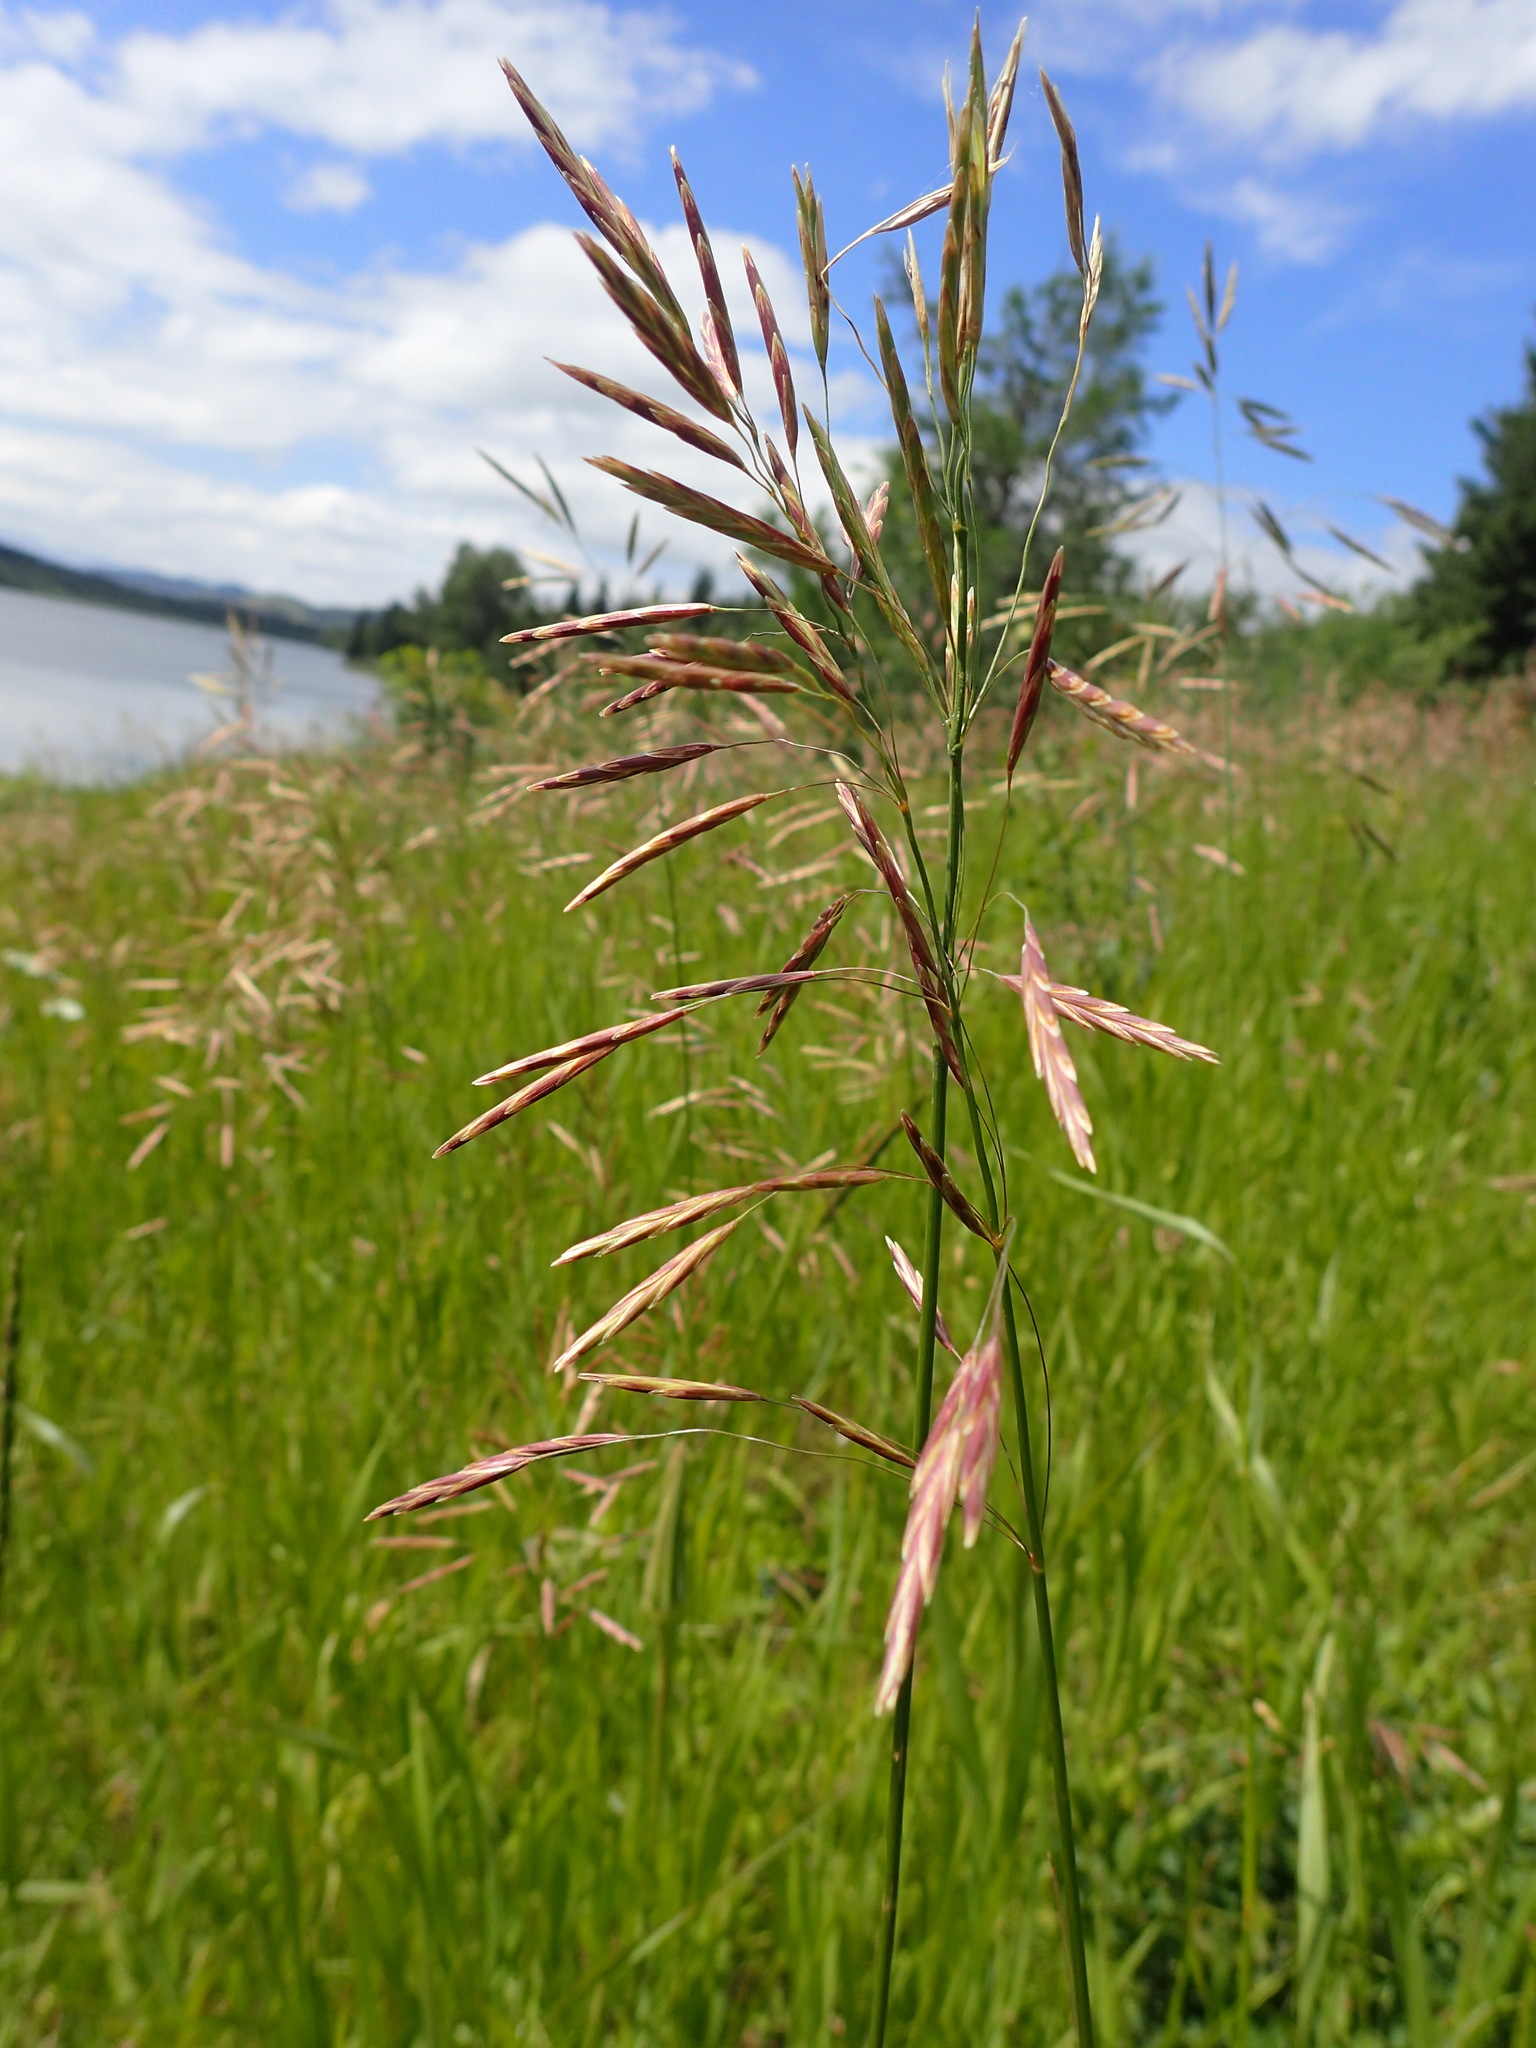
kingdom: Plantae
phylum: Tracheophyta
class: Liliopsida
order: Poales
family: Poaceae
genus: Bromus
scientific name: Bromus inermis
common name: Smooth brome
